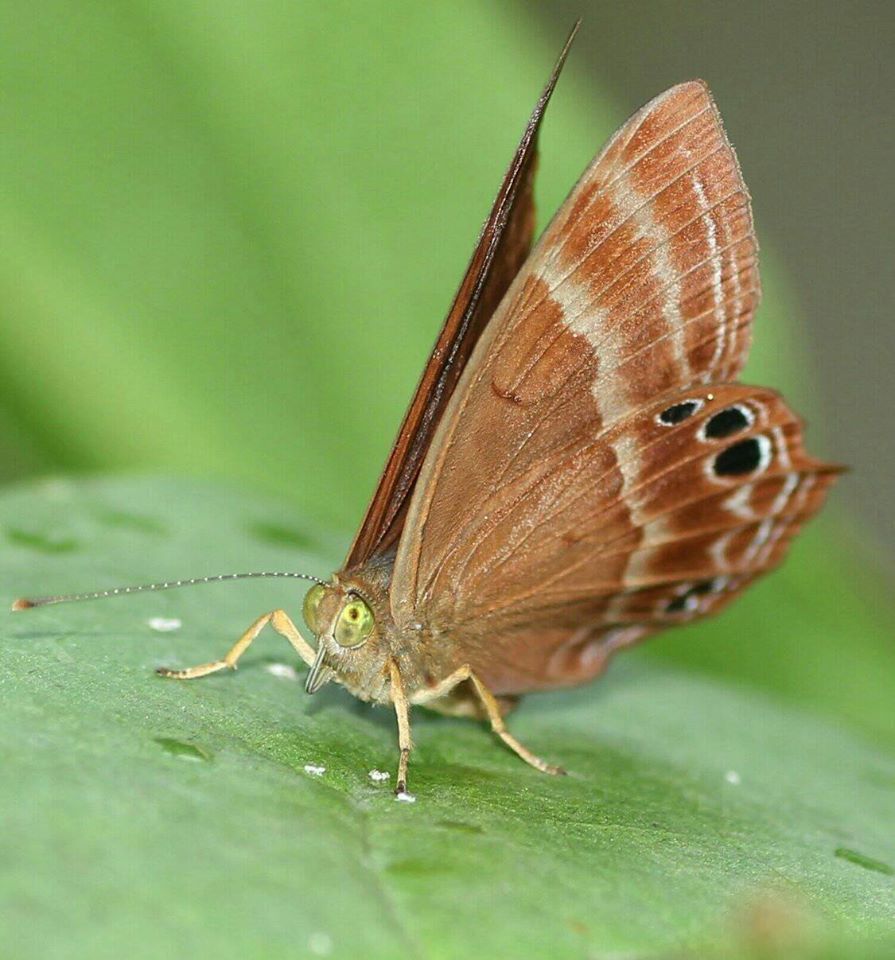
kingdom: Animalia
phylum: Arthropoda
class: Insecta
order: Lepidoptera
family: Lycaenidae
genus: Abisara
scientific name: Abisara echeria
